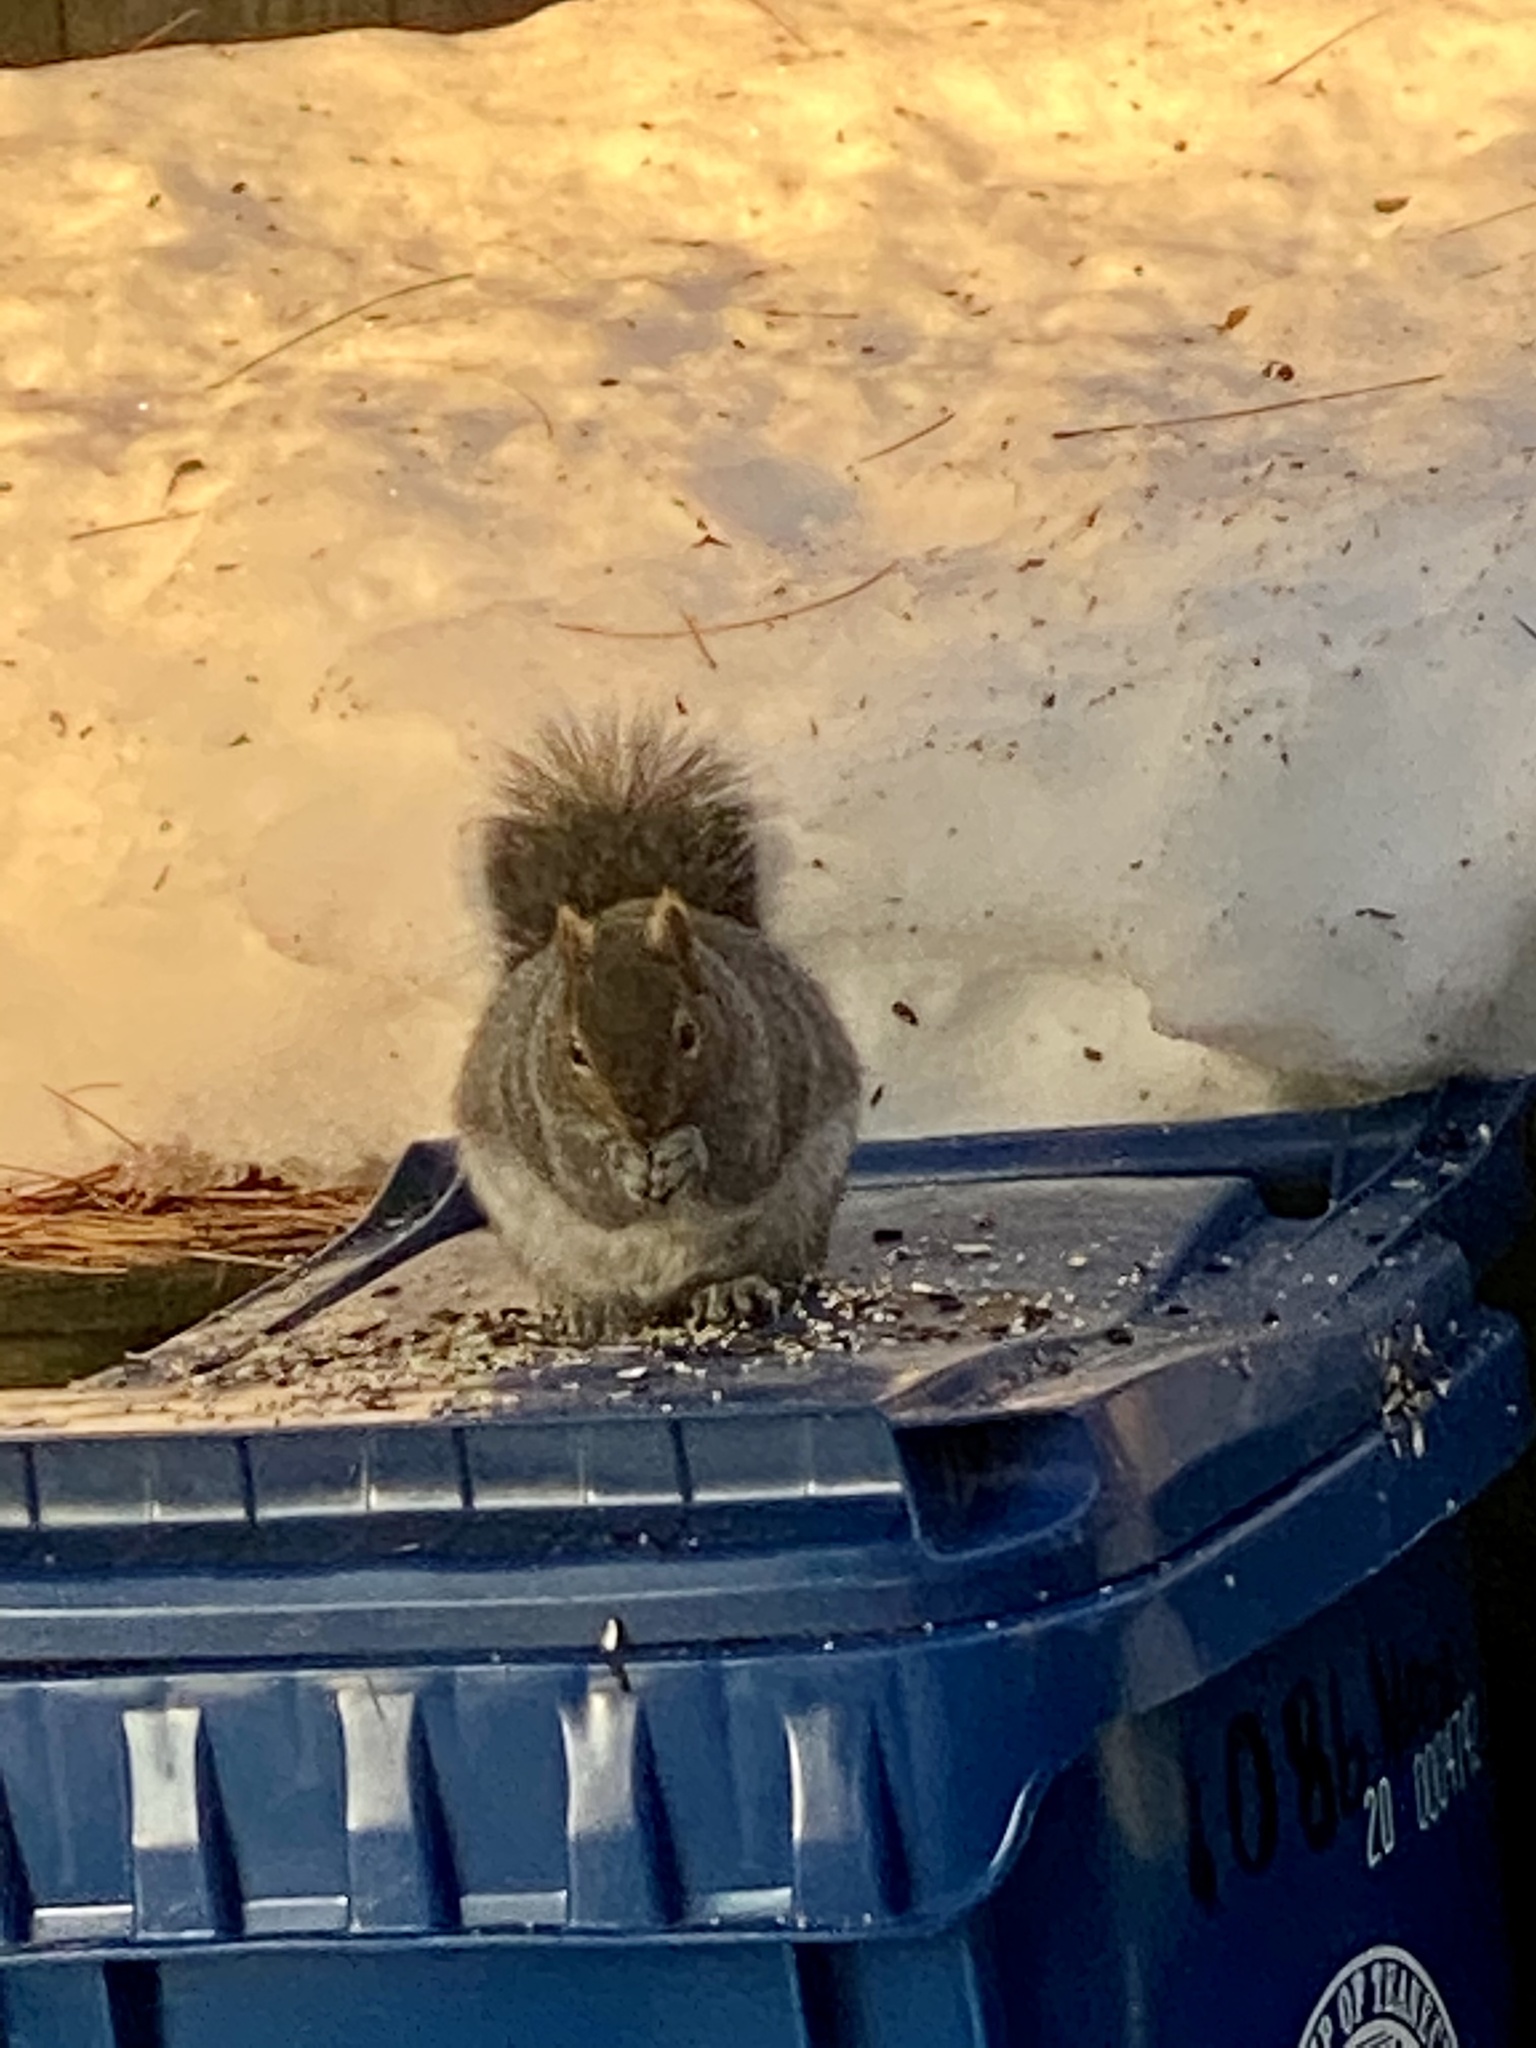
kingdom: Animalia
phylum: Chordata
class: Mammalia
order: Rodentia
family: Sciuridae
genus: Sciurus
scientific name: Sciurus carolinensis
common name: Eastern gray squirrel
